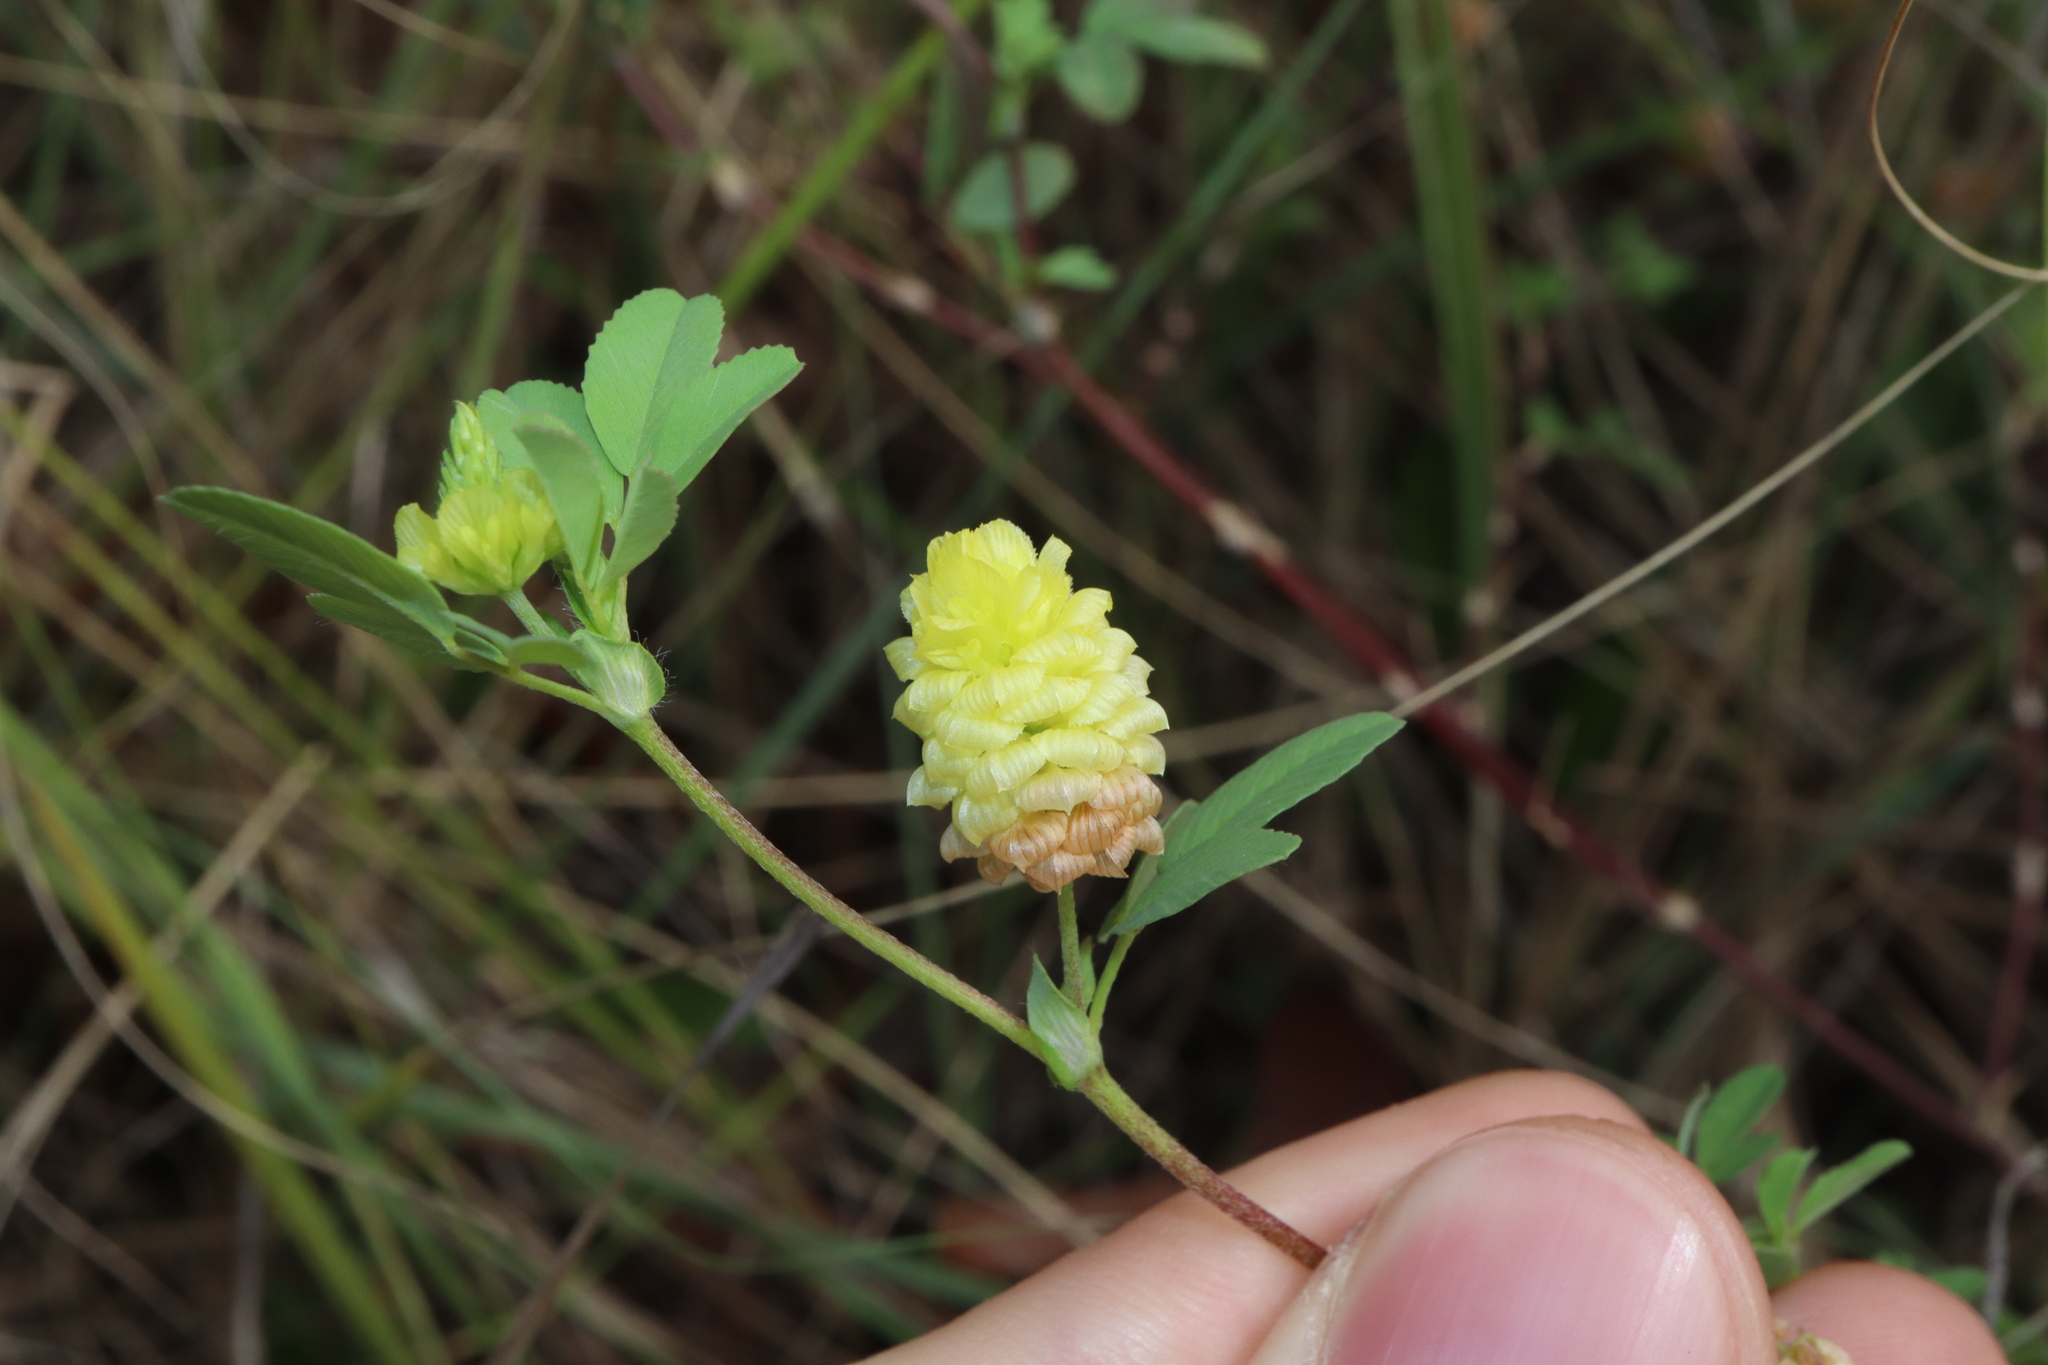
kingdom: Plantae
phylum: Tracheophyta
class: Magnoliopsida
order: Fabales
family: Fabaceae
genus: Trifolium
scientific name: Trifolium campestre
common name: Field clover
